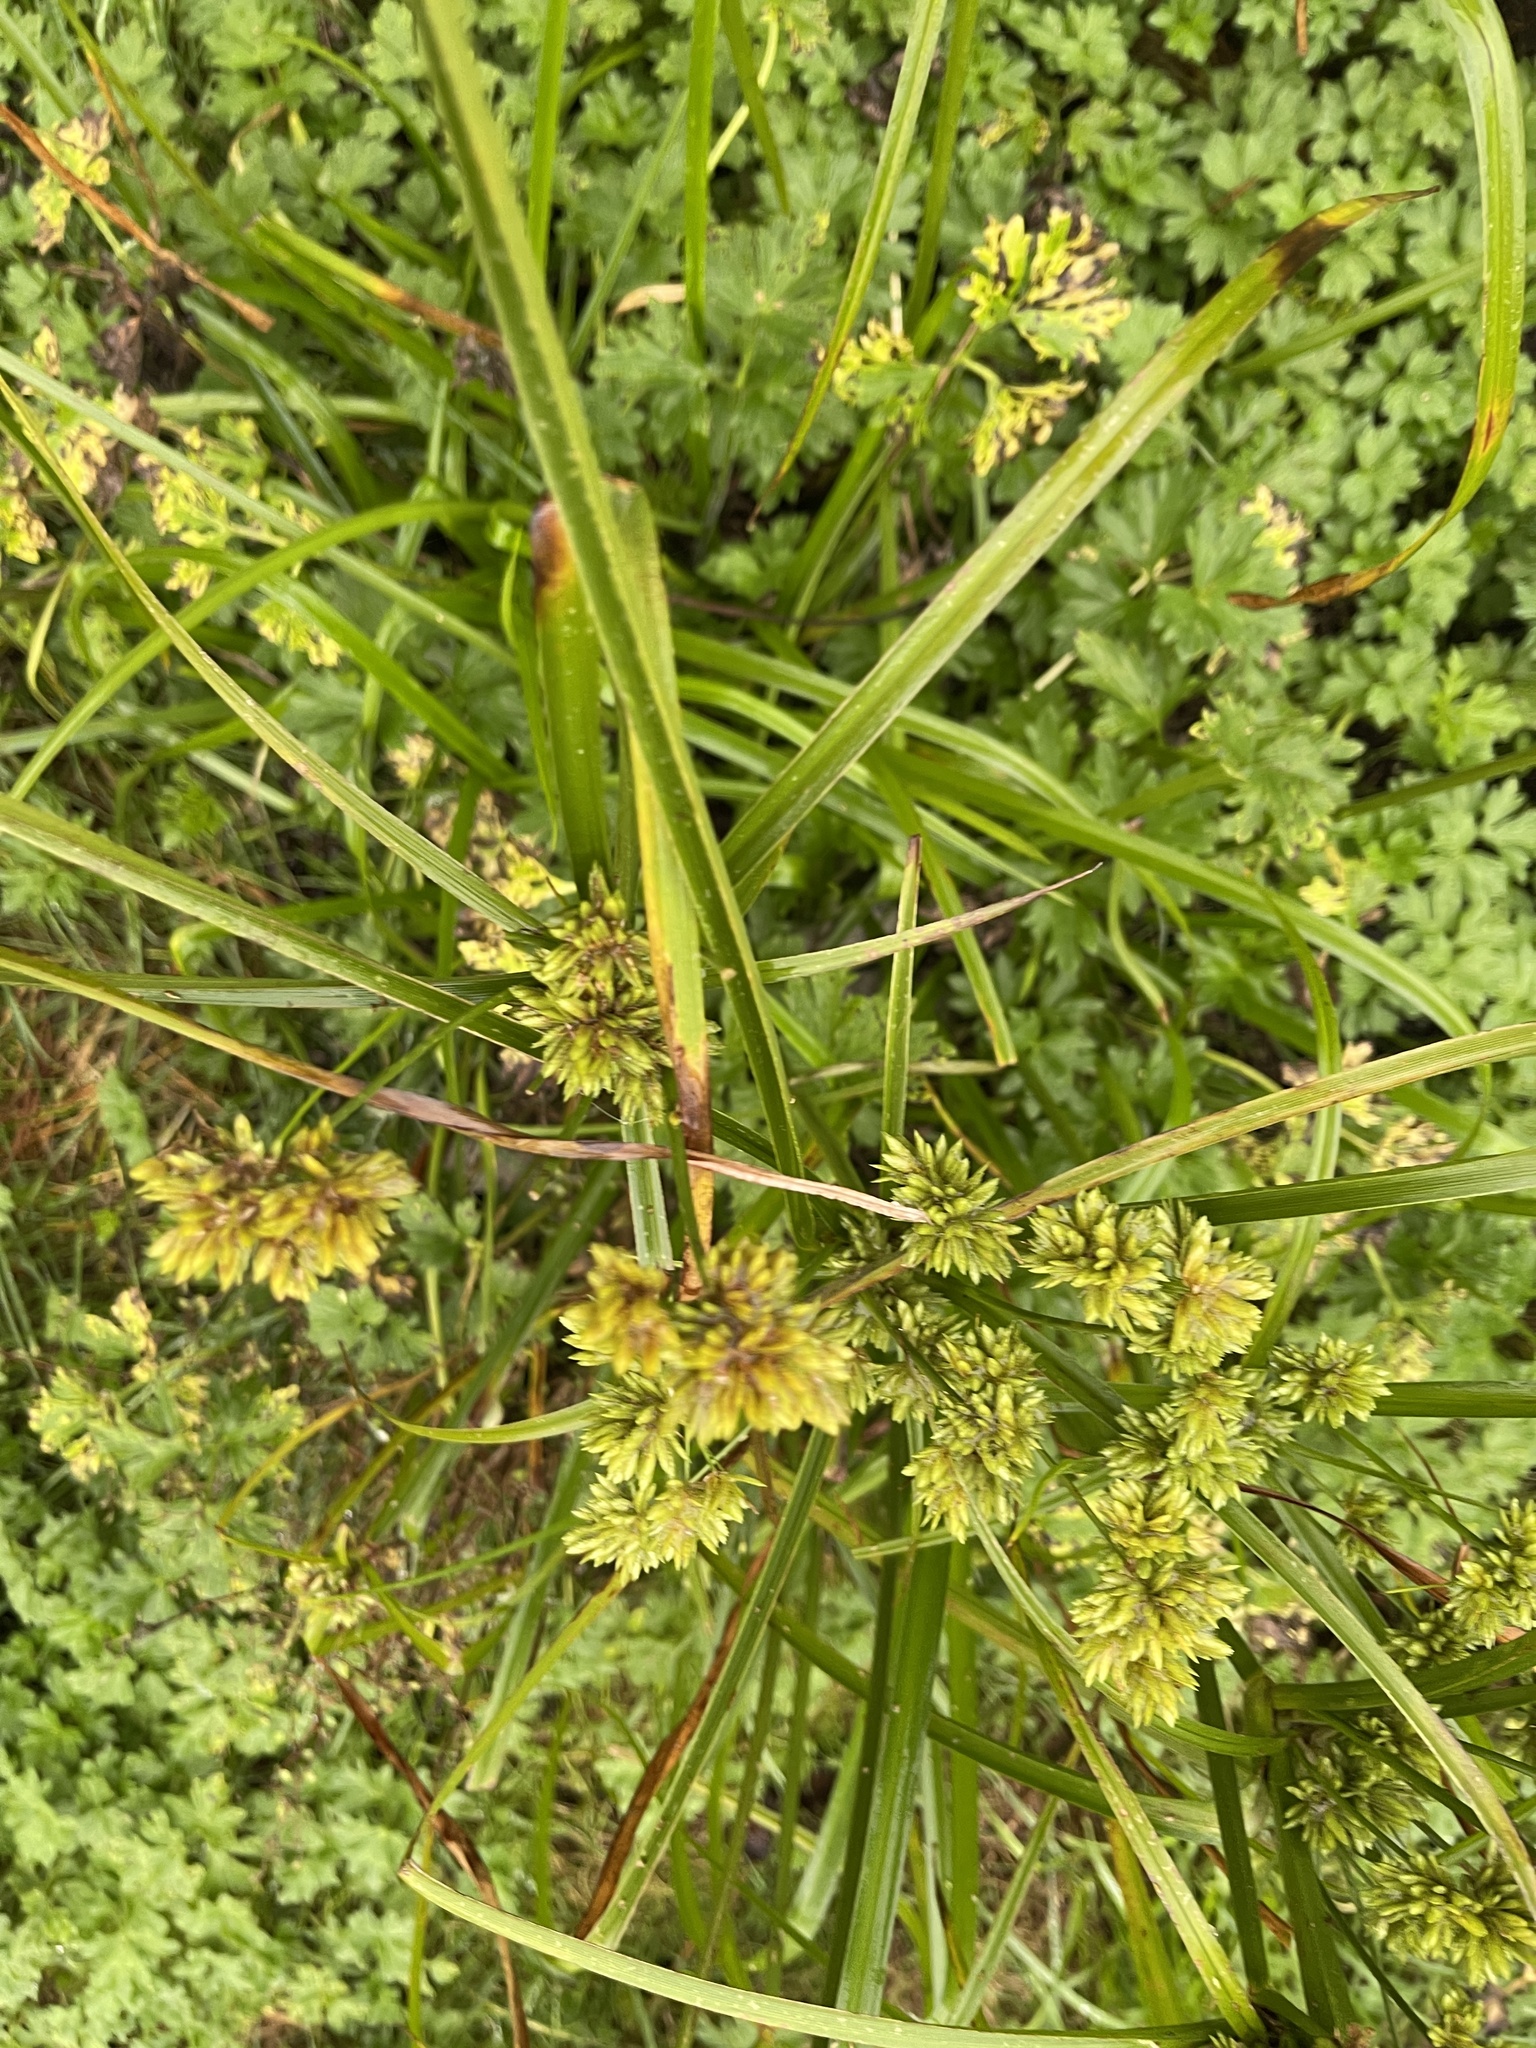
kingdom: Plantae
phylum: Tracheophyta
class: Liliopsida
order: Poales
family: Cyperaceae
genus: Cyperus
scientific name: Cyperus eragrostis
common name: Tall flatsedge
